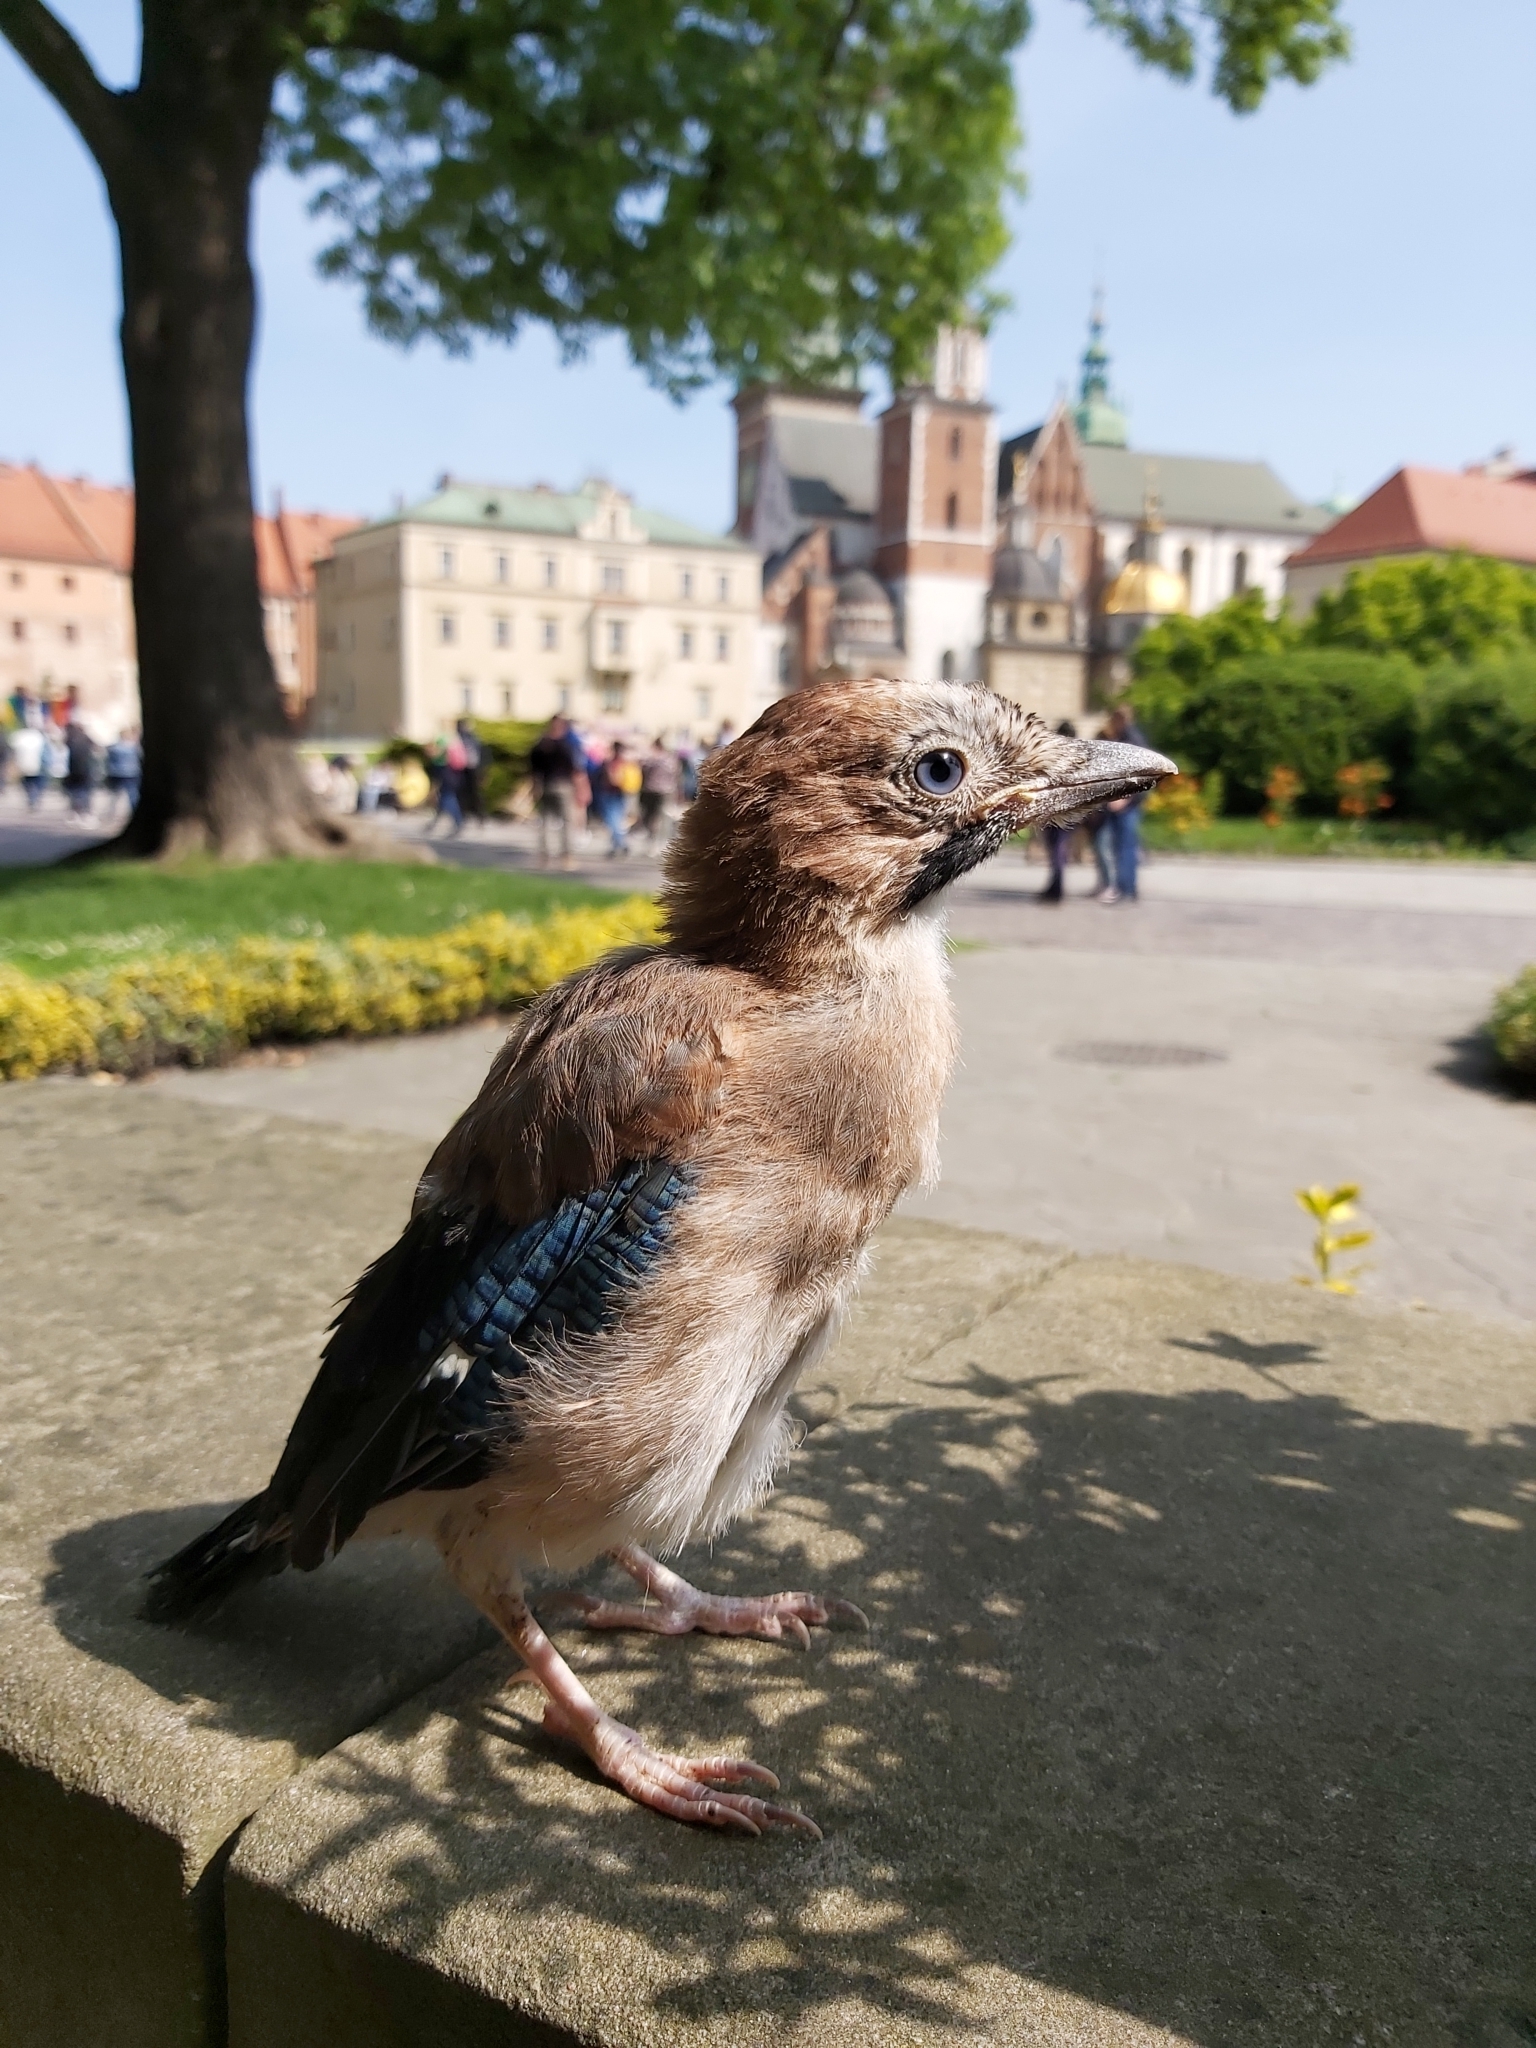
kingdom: Animalia
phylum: Chordata
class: Aves
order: Passeriformes
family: Corvidae
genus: Garrulus
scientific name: Garrulus glandarius
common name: Eurasian jay
